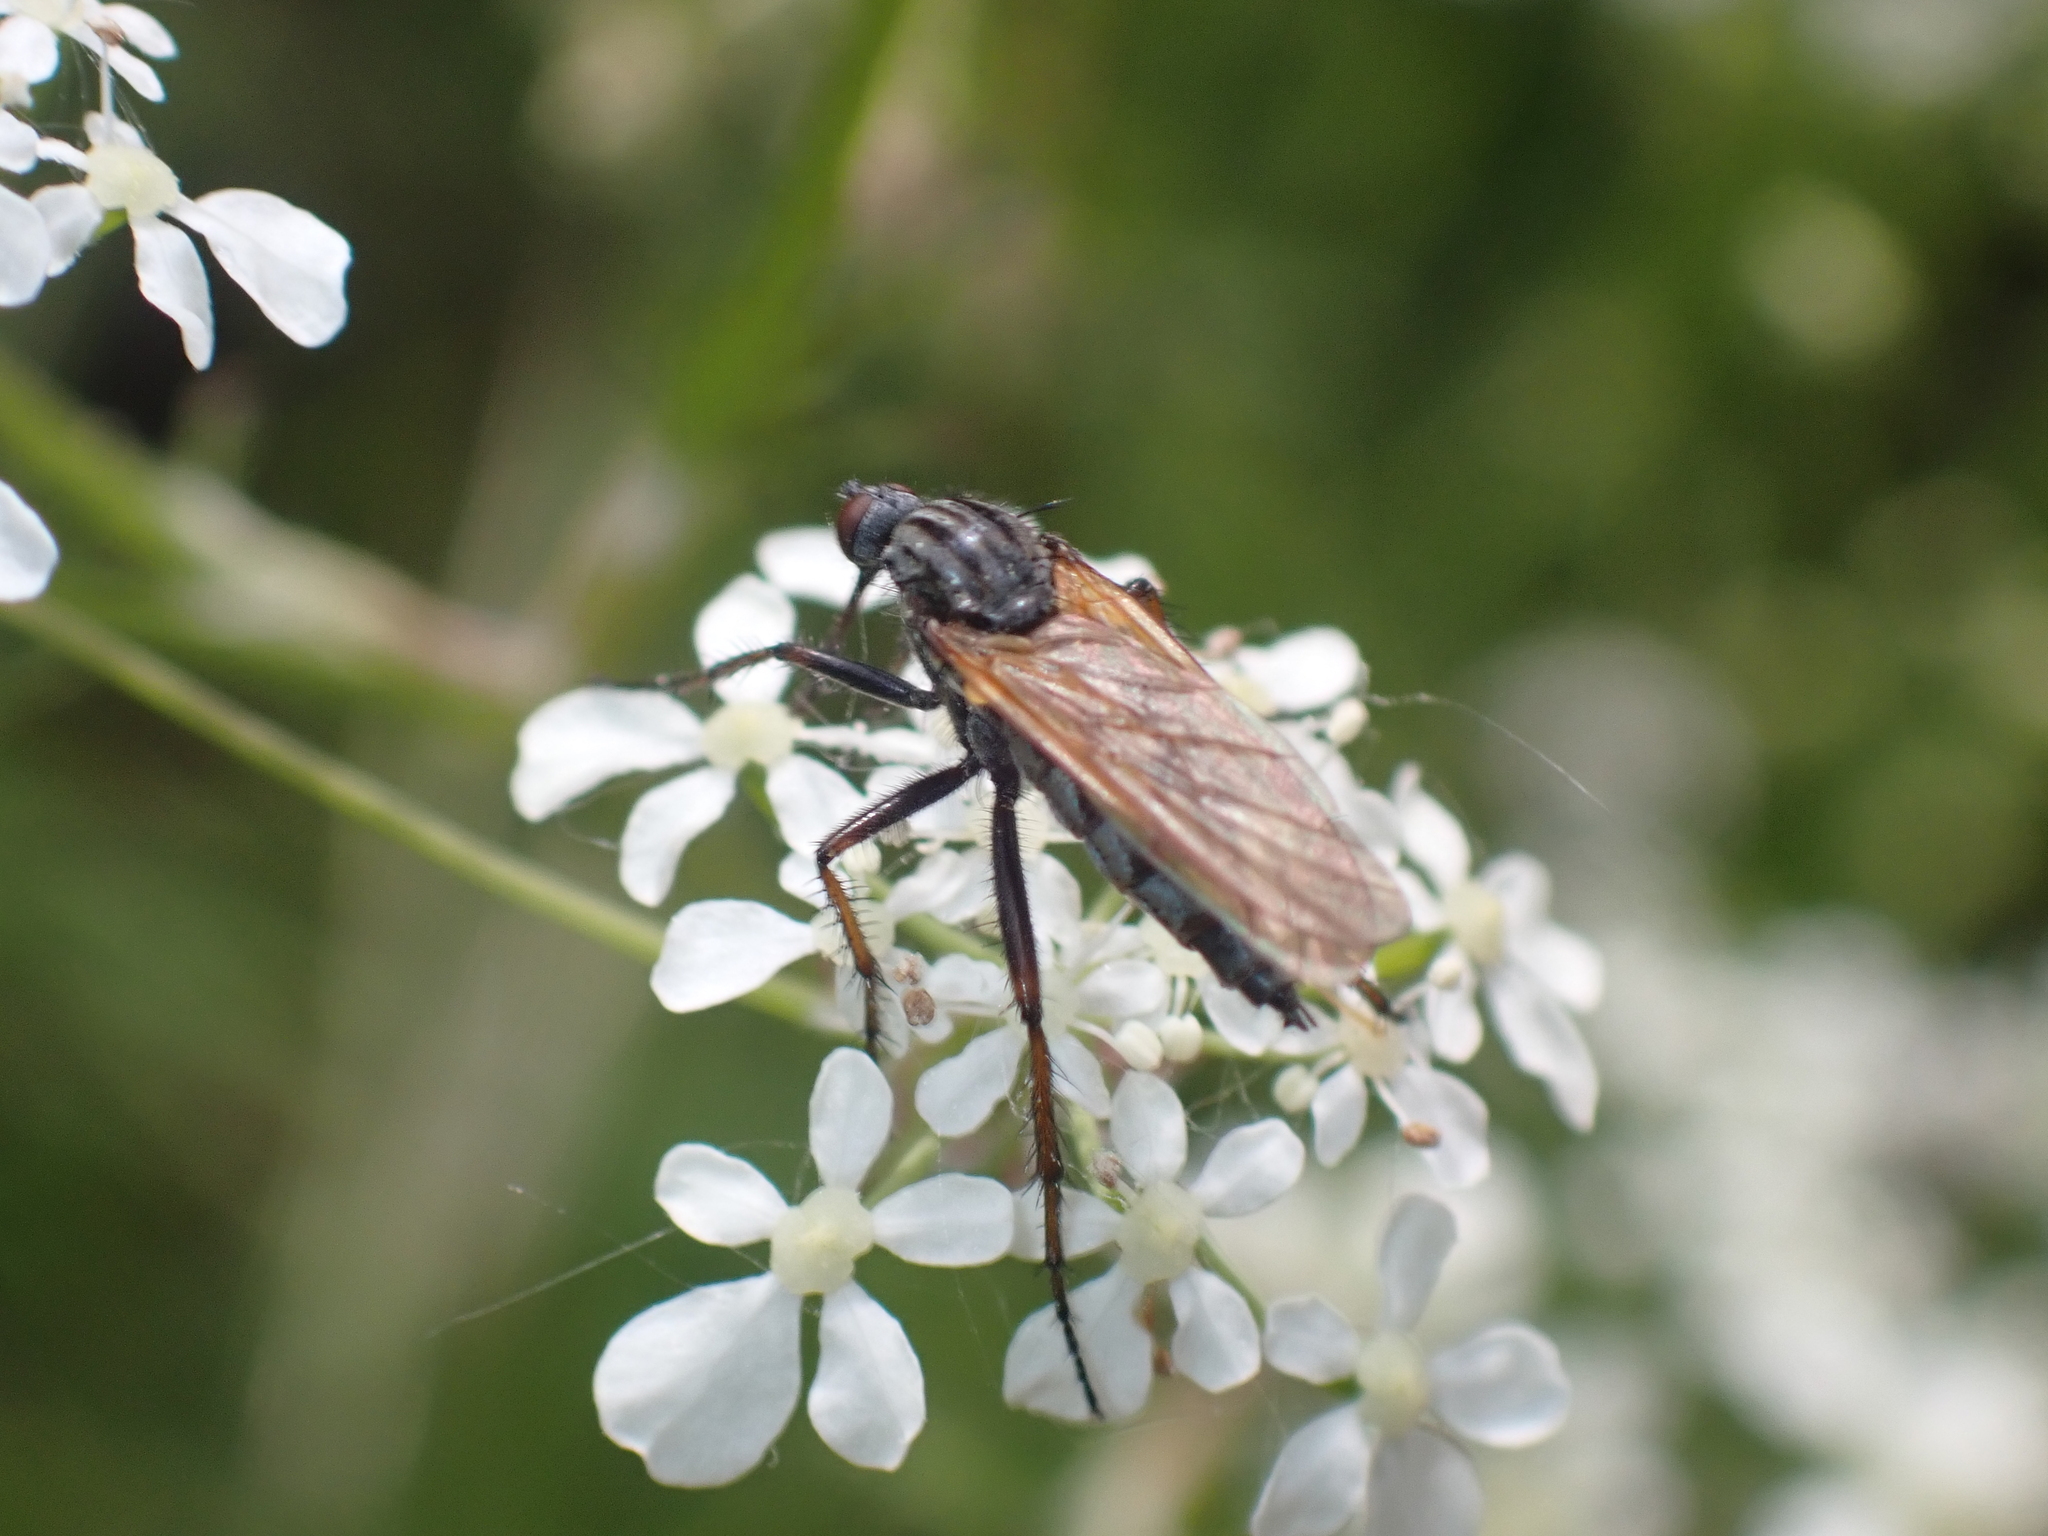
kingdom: Animalia
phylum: Arthropoda
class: Insecta
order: Diptera
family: Empididae
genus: Empis
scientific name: Empis tessellata
